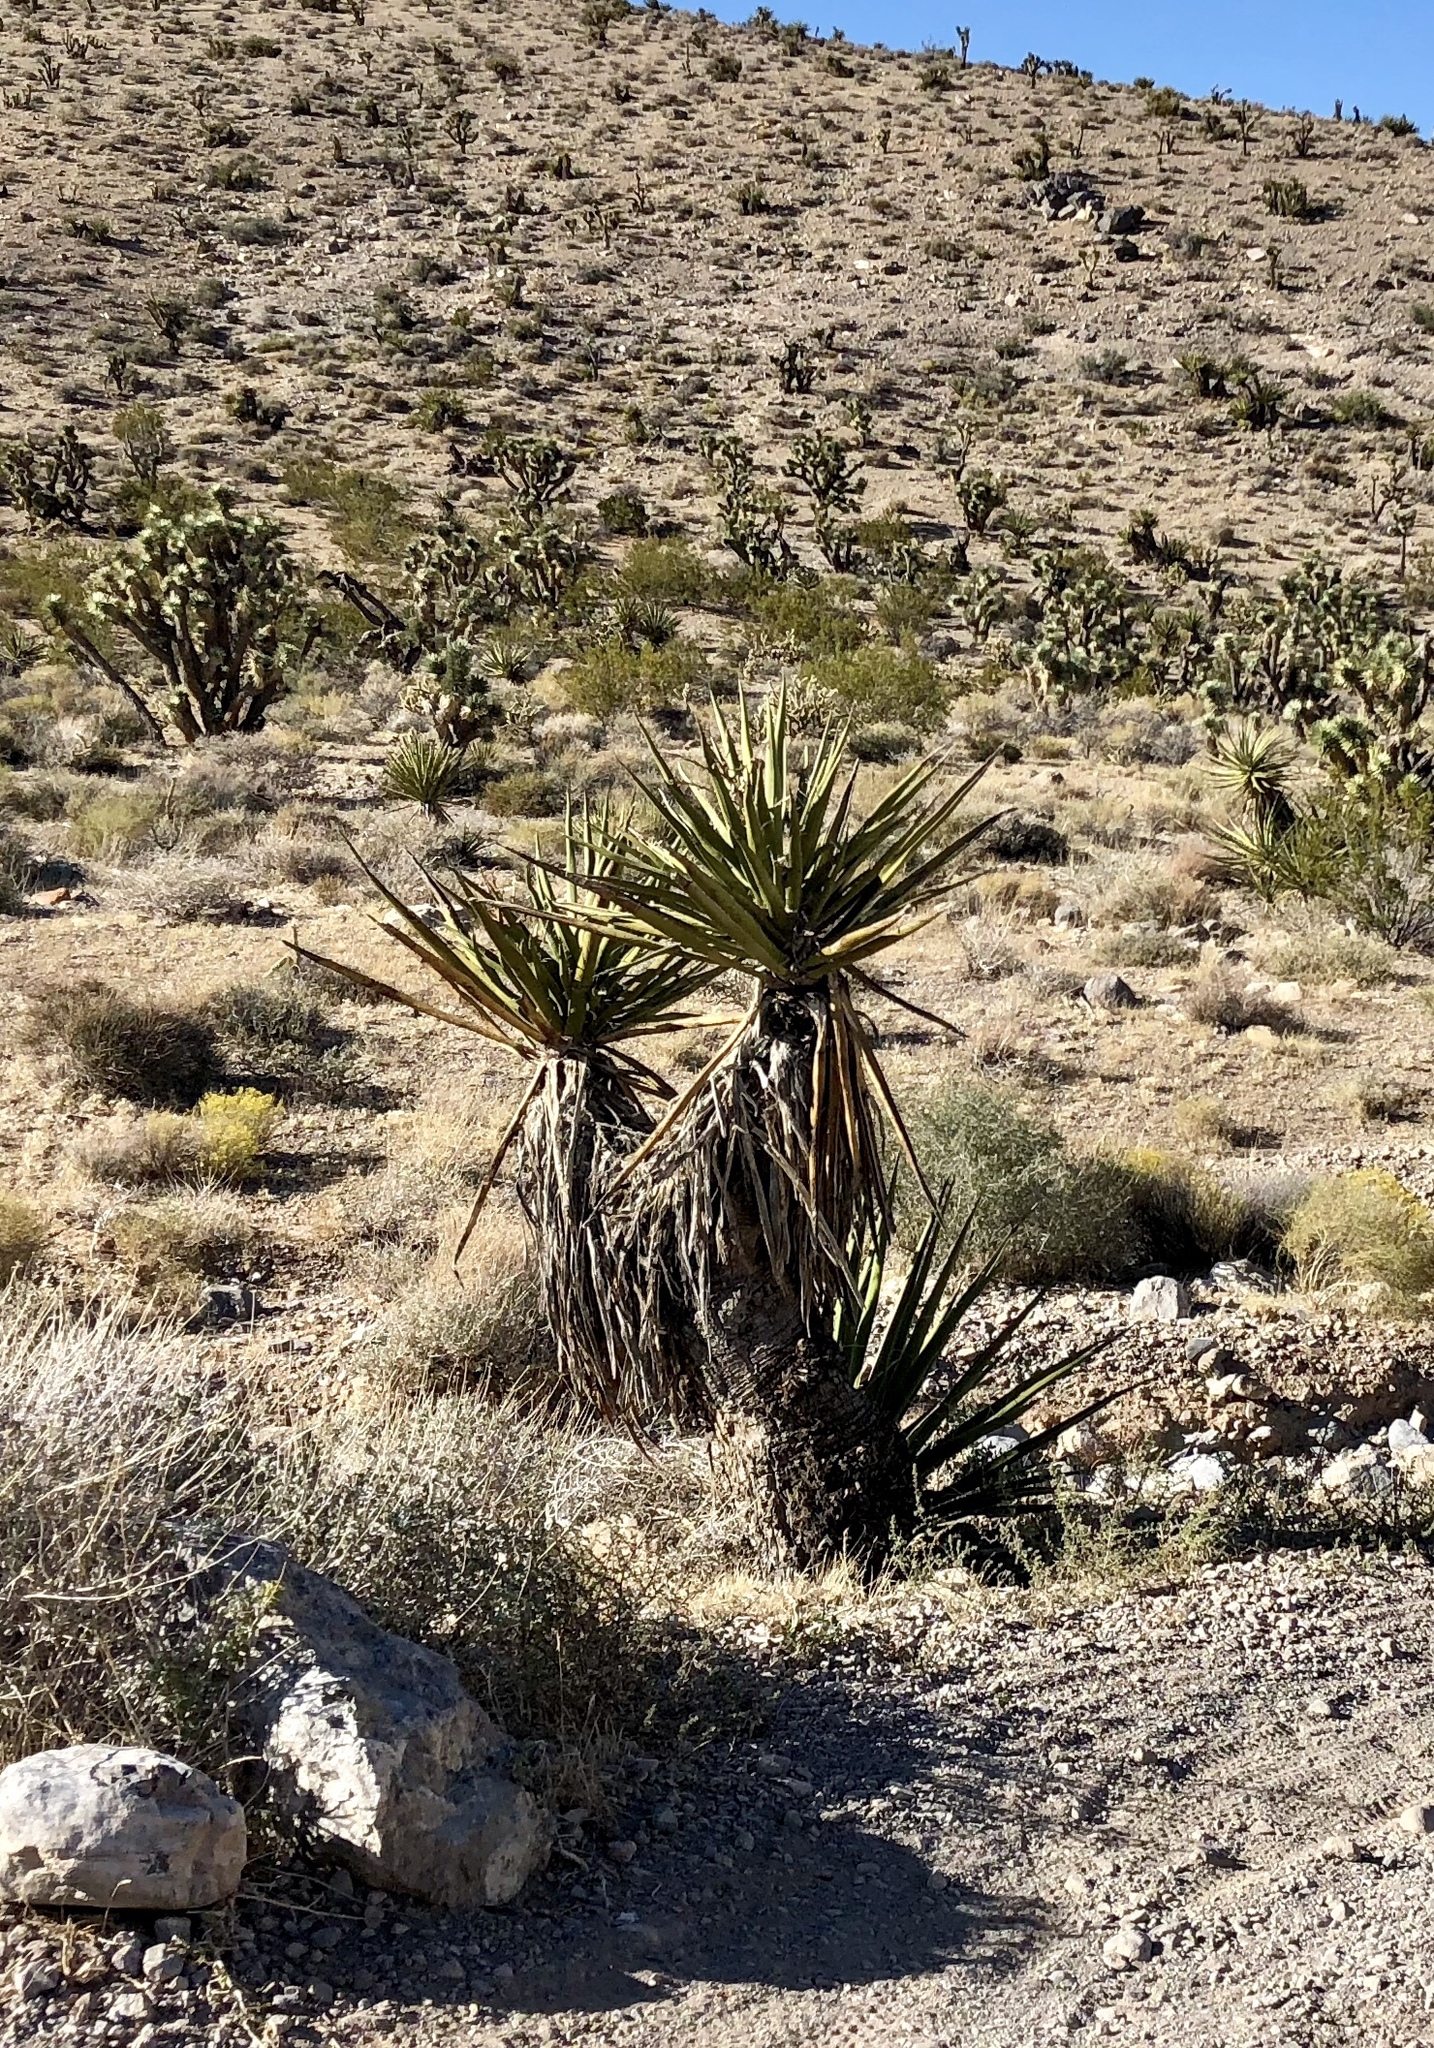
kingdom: Plantae
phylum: Tracheophyta
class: Liliopsida
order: Asparagales
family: Asparagaceae
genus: Yucca
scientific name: Yucca schidigera
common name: Mojave yucca
